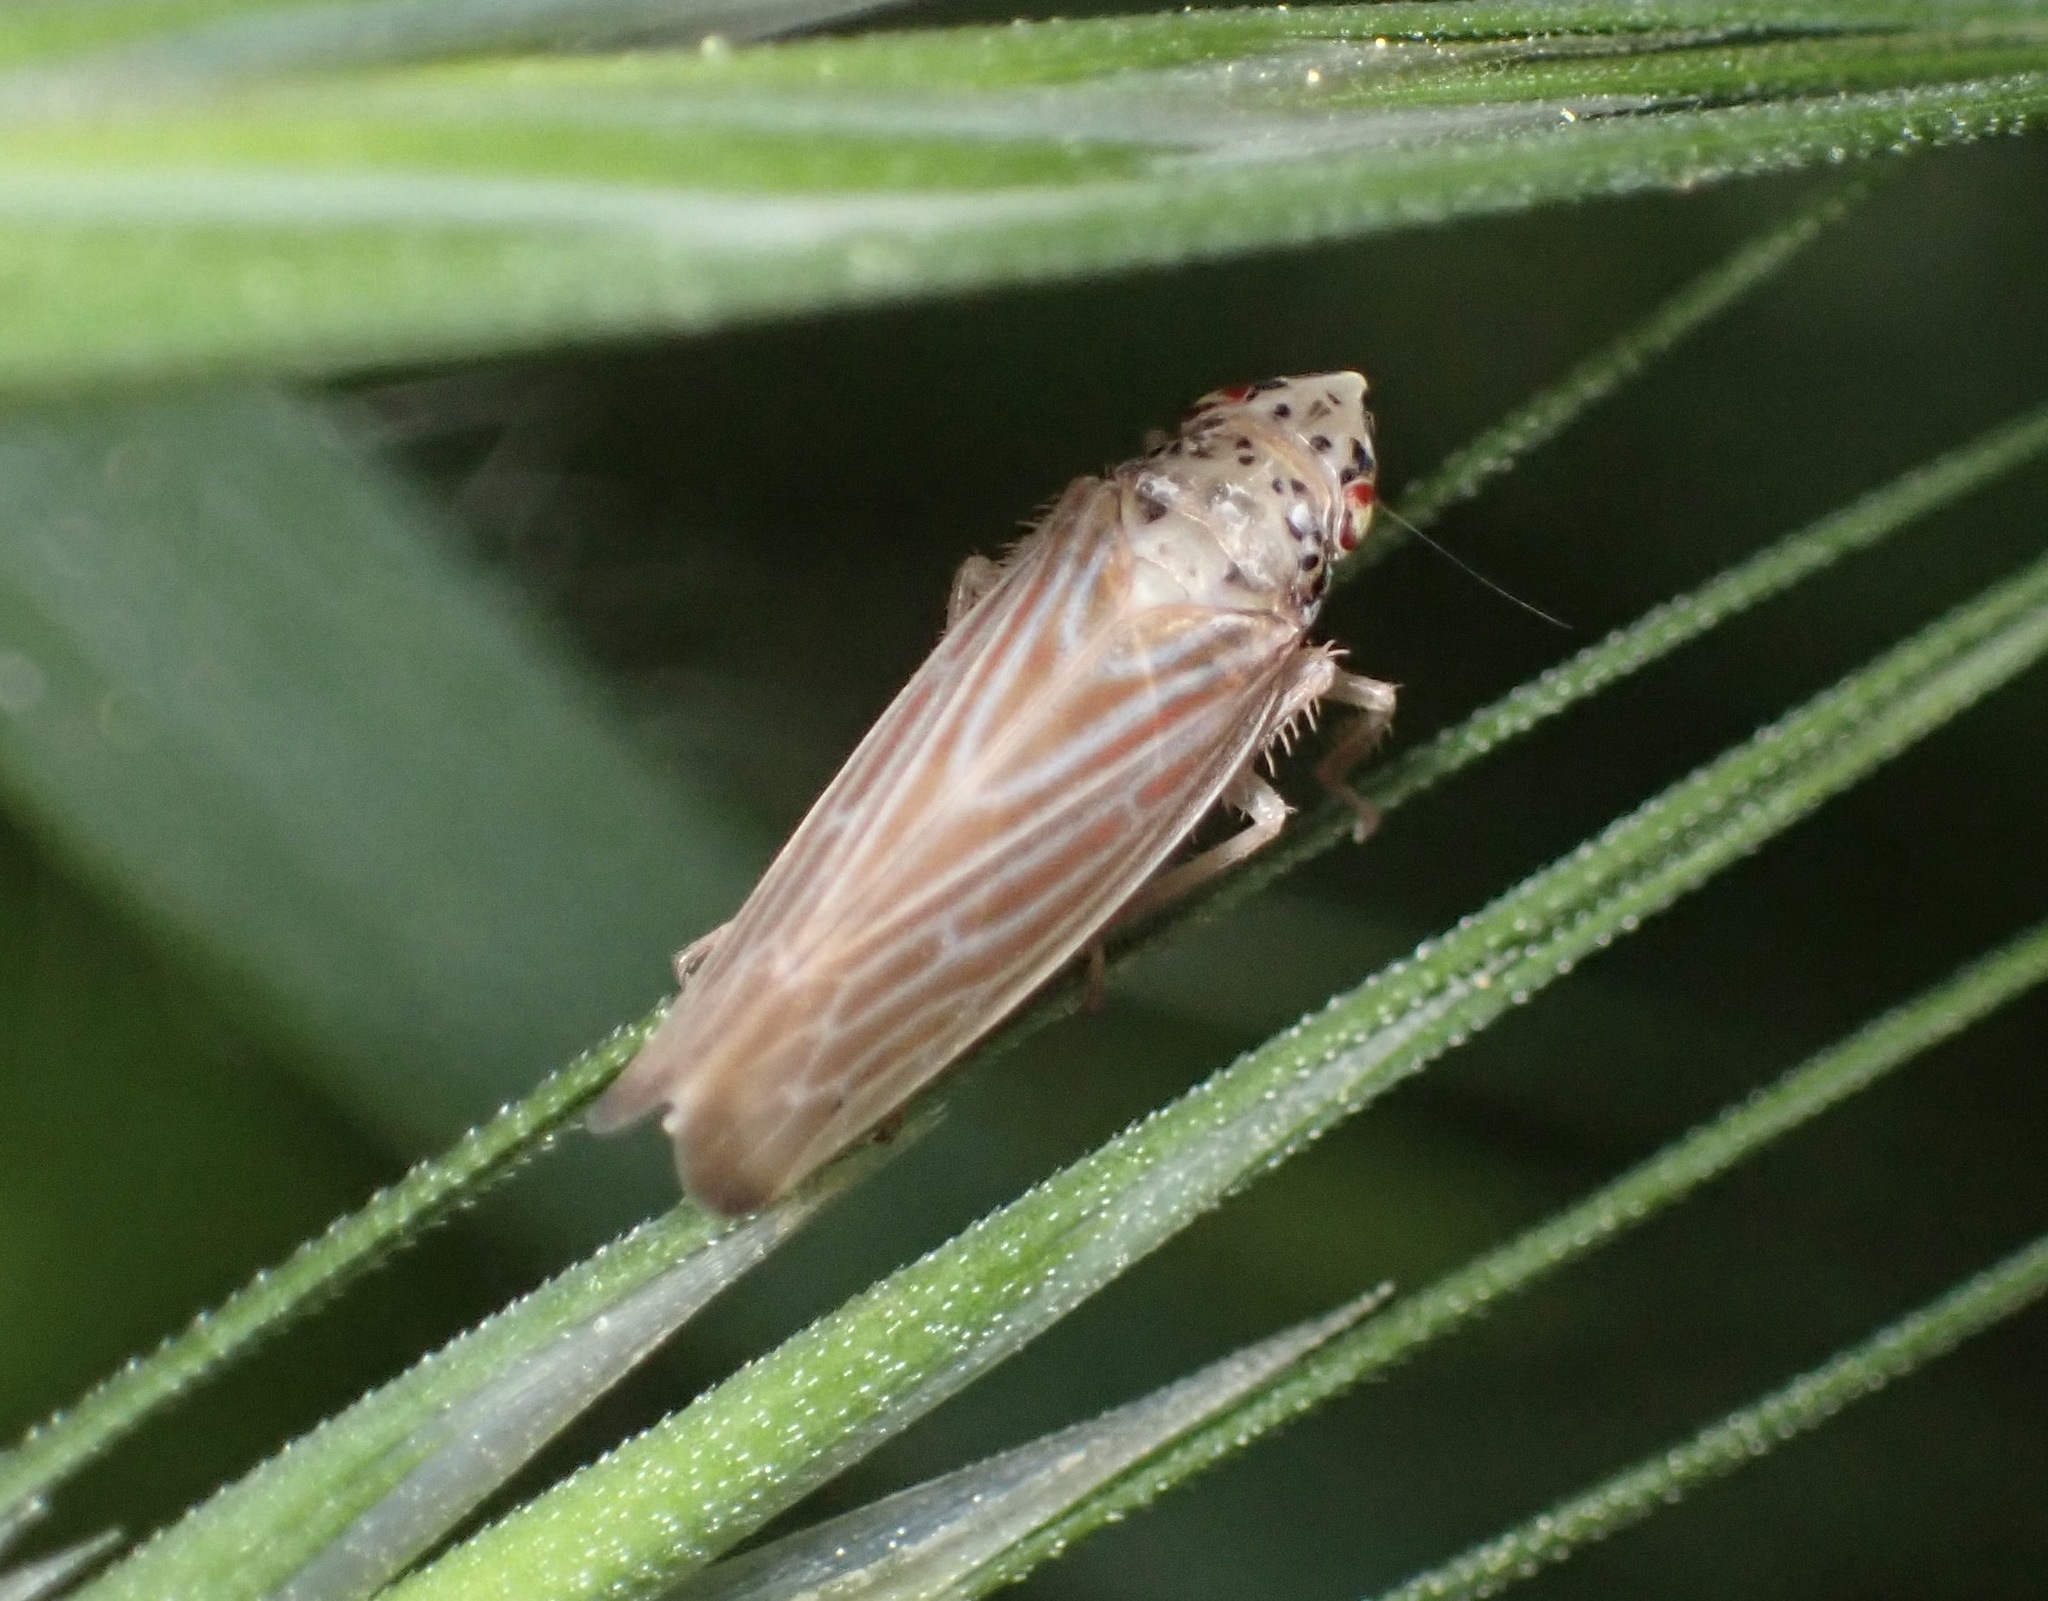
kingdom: Animalia
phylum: Arthropoda
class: Insecta
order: Hemiptera
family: Cicadellidae
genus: Pagaronia
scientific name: Pagaronia triunata
